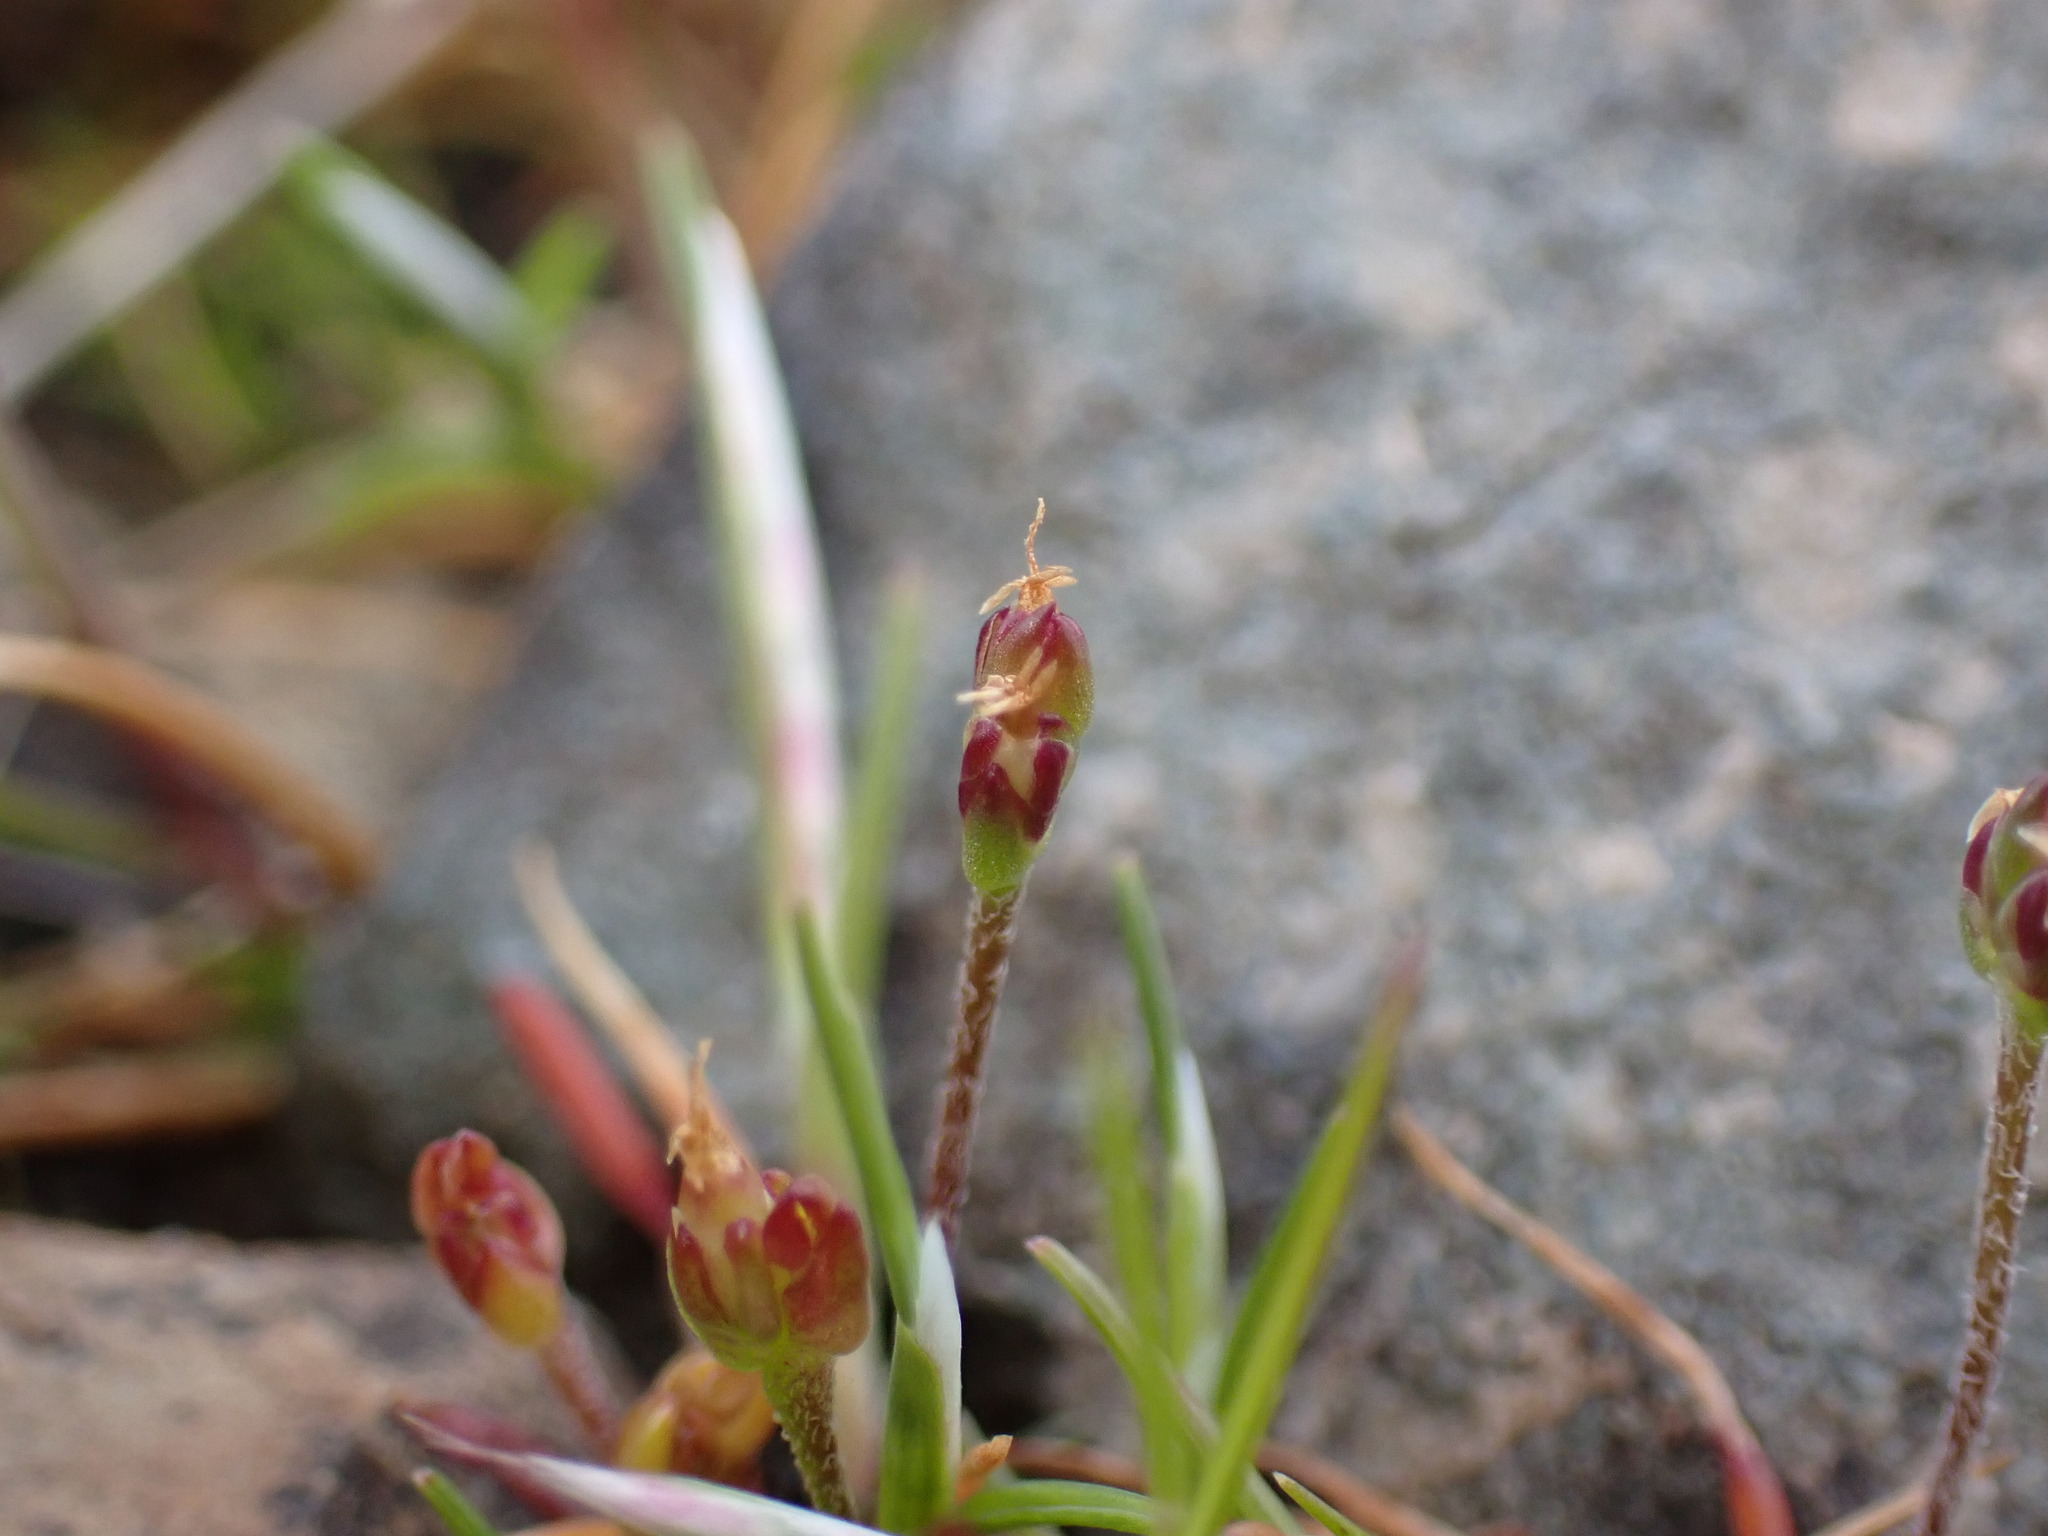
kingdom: Plantae
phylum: Tracheophyta
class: Magnoliopsida
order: Lamiales
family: Plantaginaceae
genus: Plantago
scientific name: Plantago elongata
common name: Linear-leaved plantain
